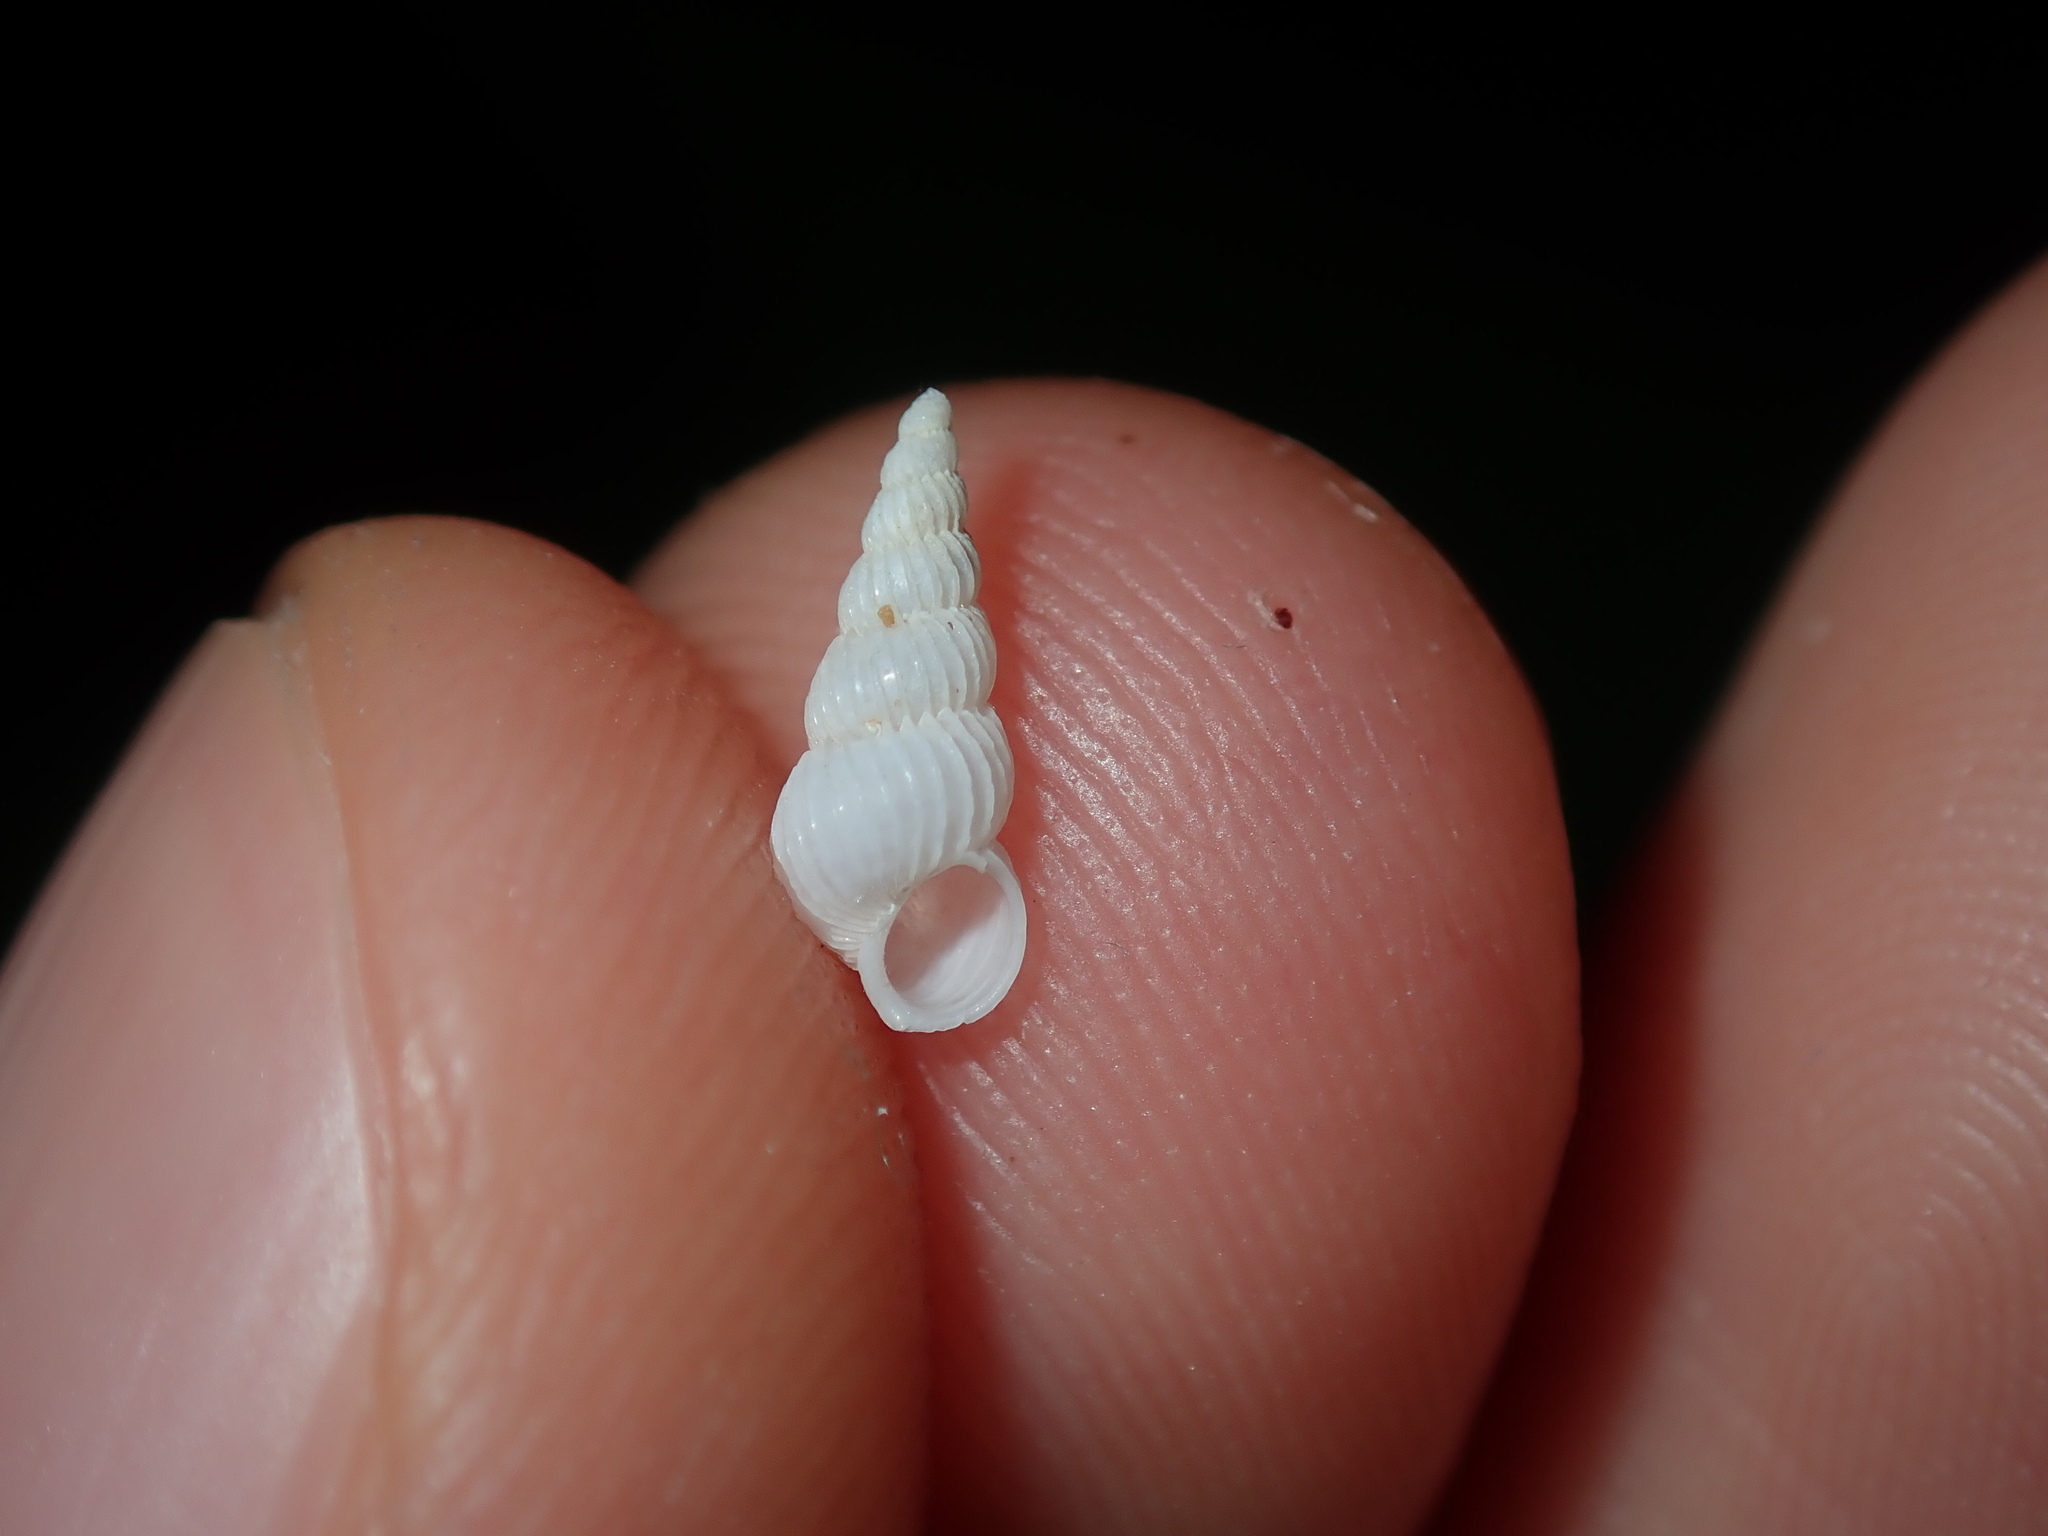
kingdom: Animalia
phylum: Mollusca
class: Gastropoda
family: Epitoniidae
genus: Epitonium
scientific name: Epitonium jukesianum
